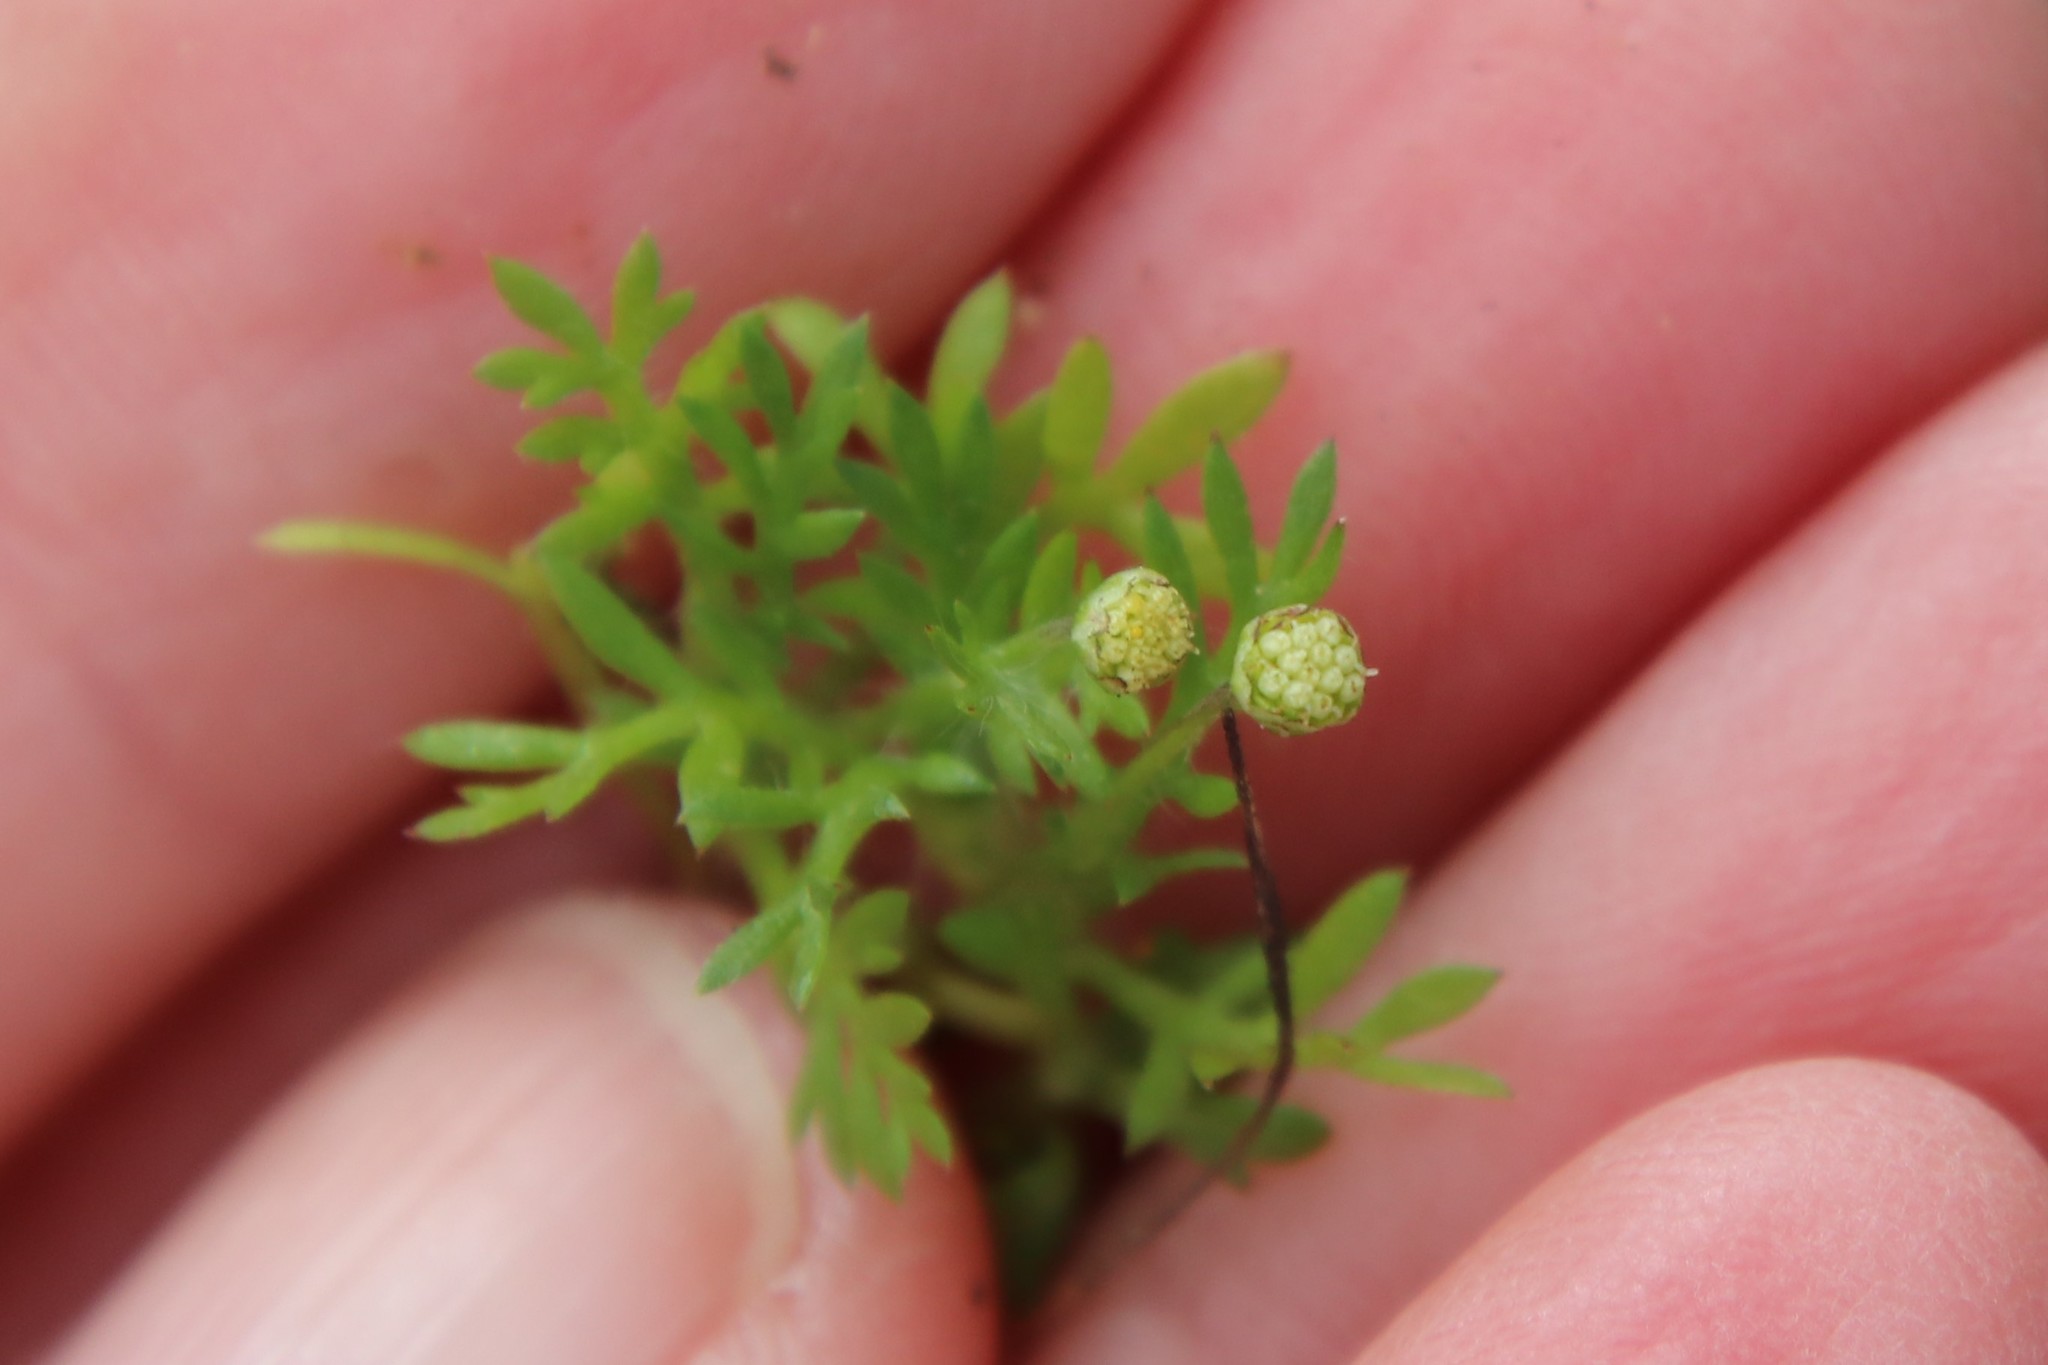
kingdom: Plantae
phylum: Tracheophyta
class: Magnoliopsida
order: Asterales
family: Asteraceae
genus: Cotula
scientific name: Cotula australis
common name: Australian waterbuttons
